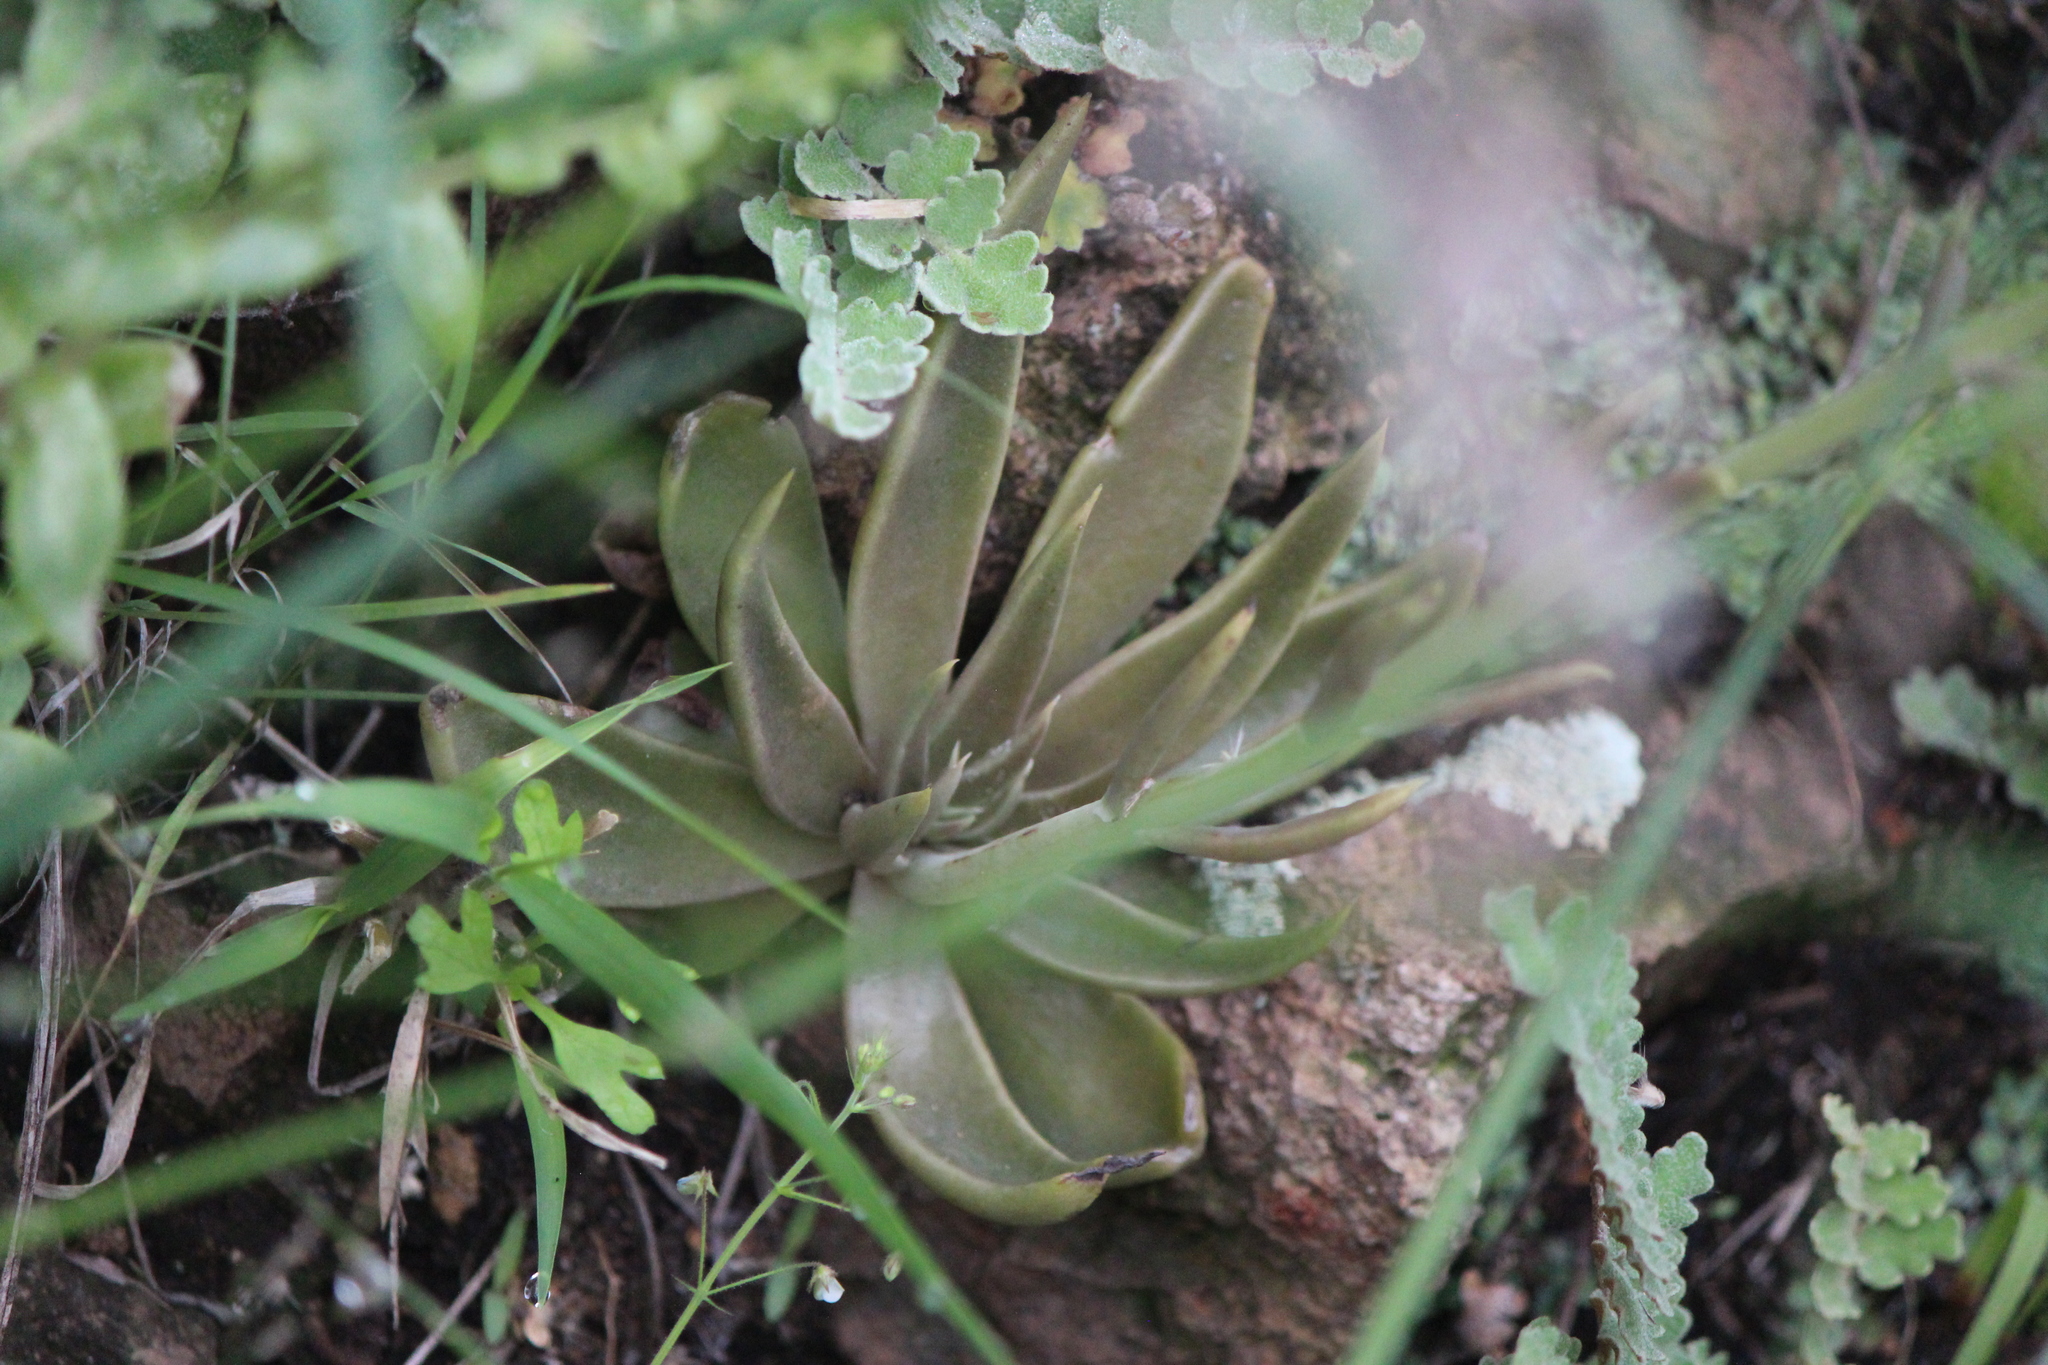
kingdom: Plantae
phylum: Tracheophyta
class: Magnoliopsida
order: Saxifragales
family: Crassulaceae
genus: Echeveria
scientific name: Echeveria bifida
